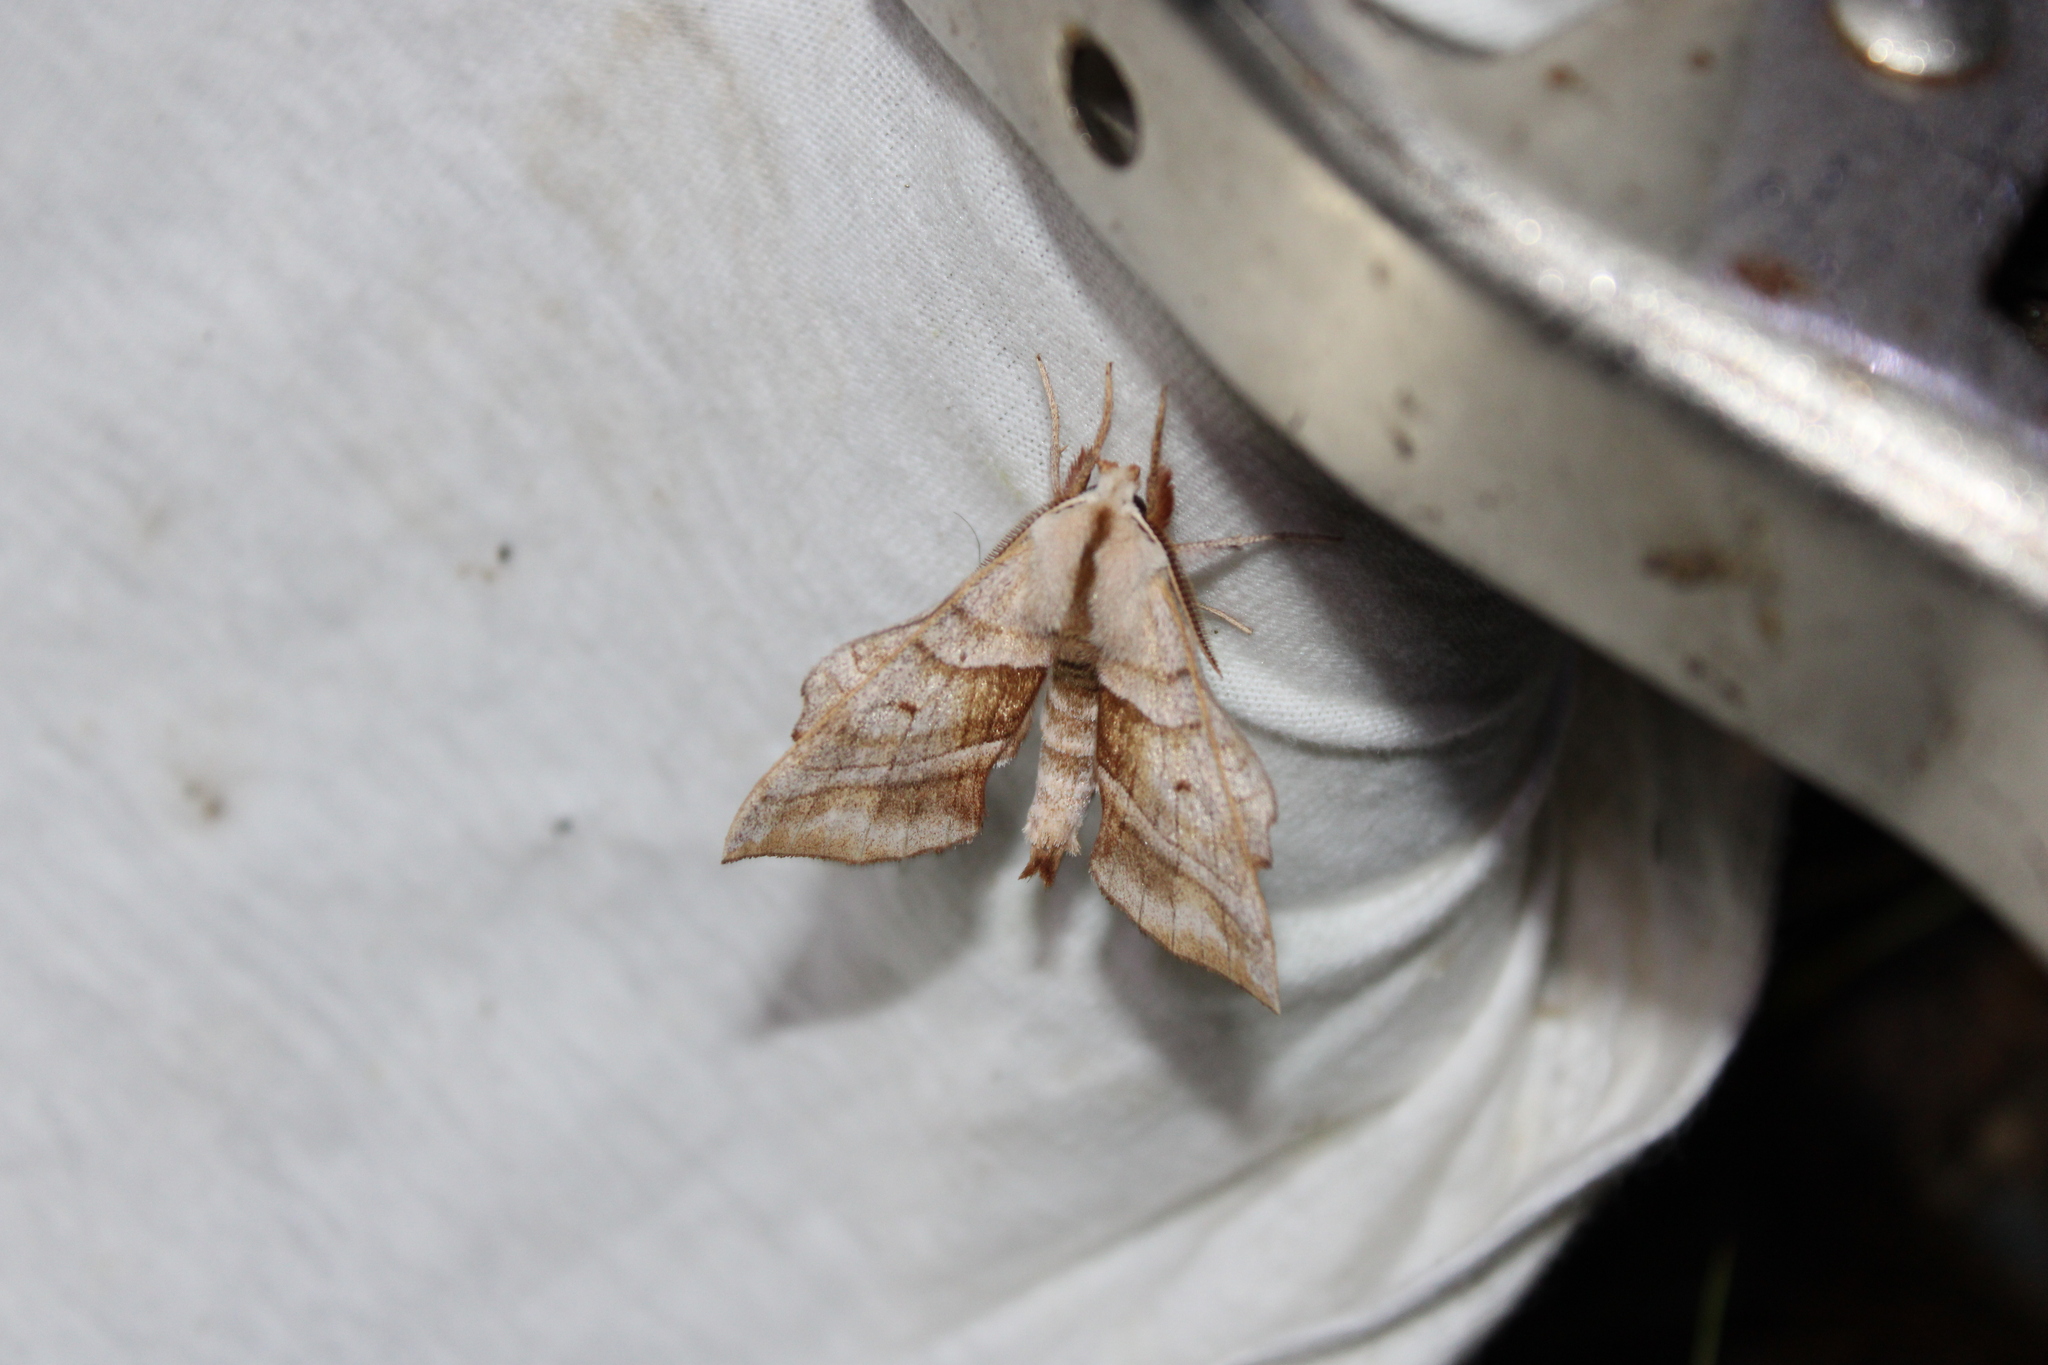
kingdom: Animalia
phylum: Arthropoda
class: Insecta
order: Lepidoptera
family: Sphingidae
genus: Amorpha
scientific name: Amorpha juglandis
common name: Walnut sphinx
